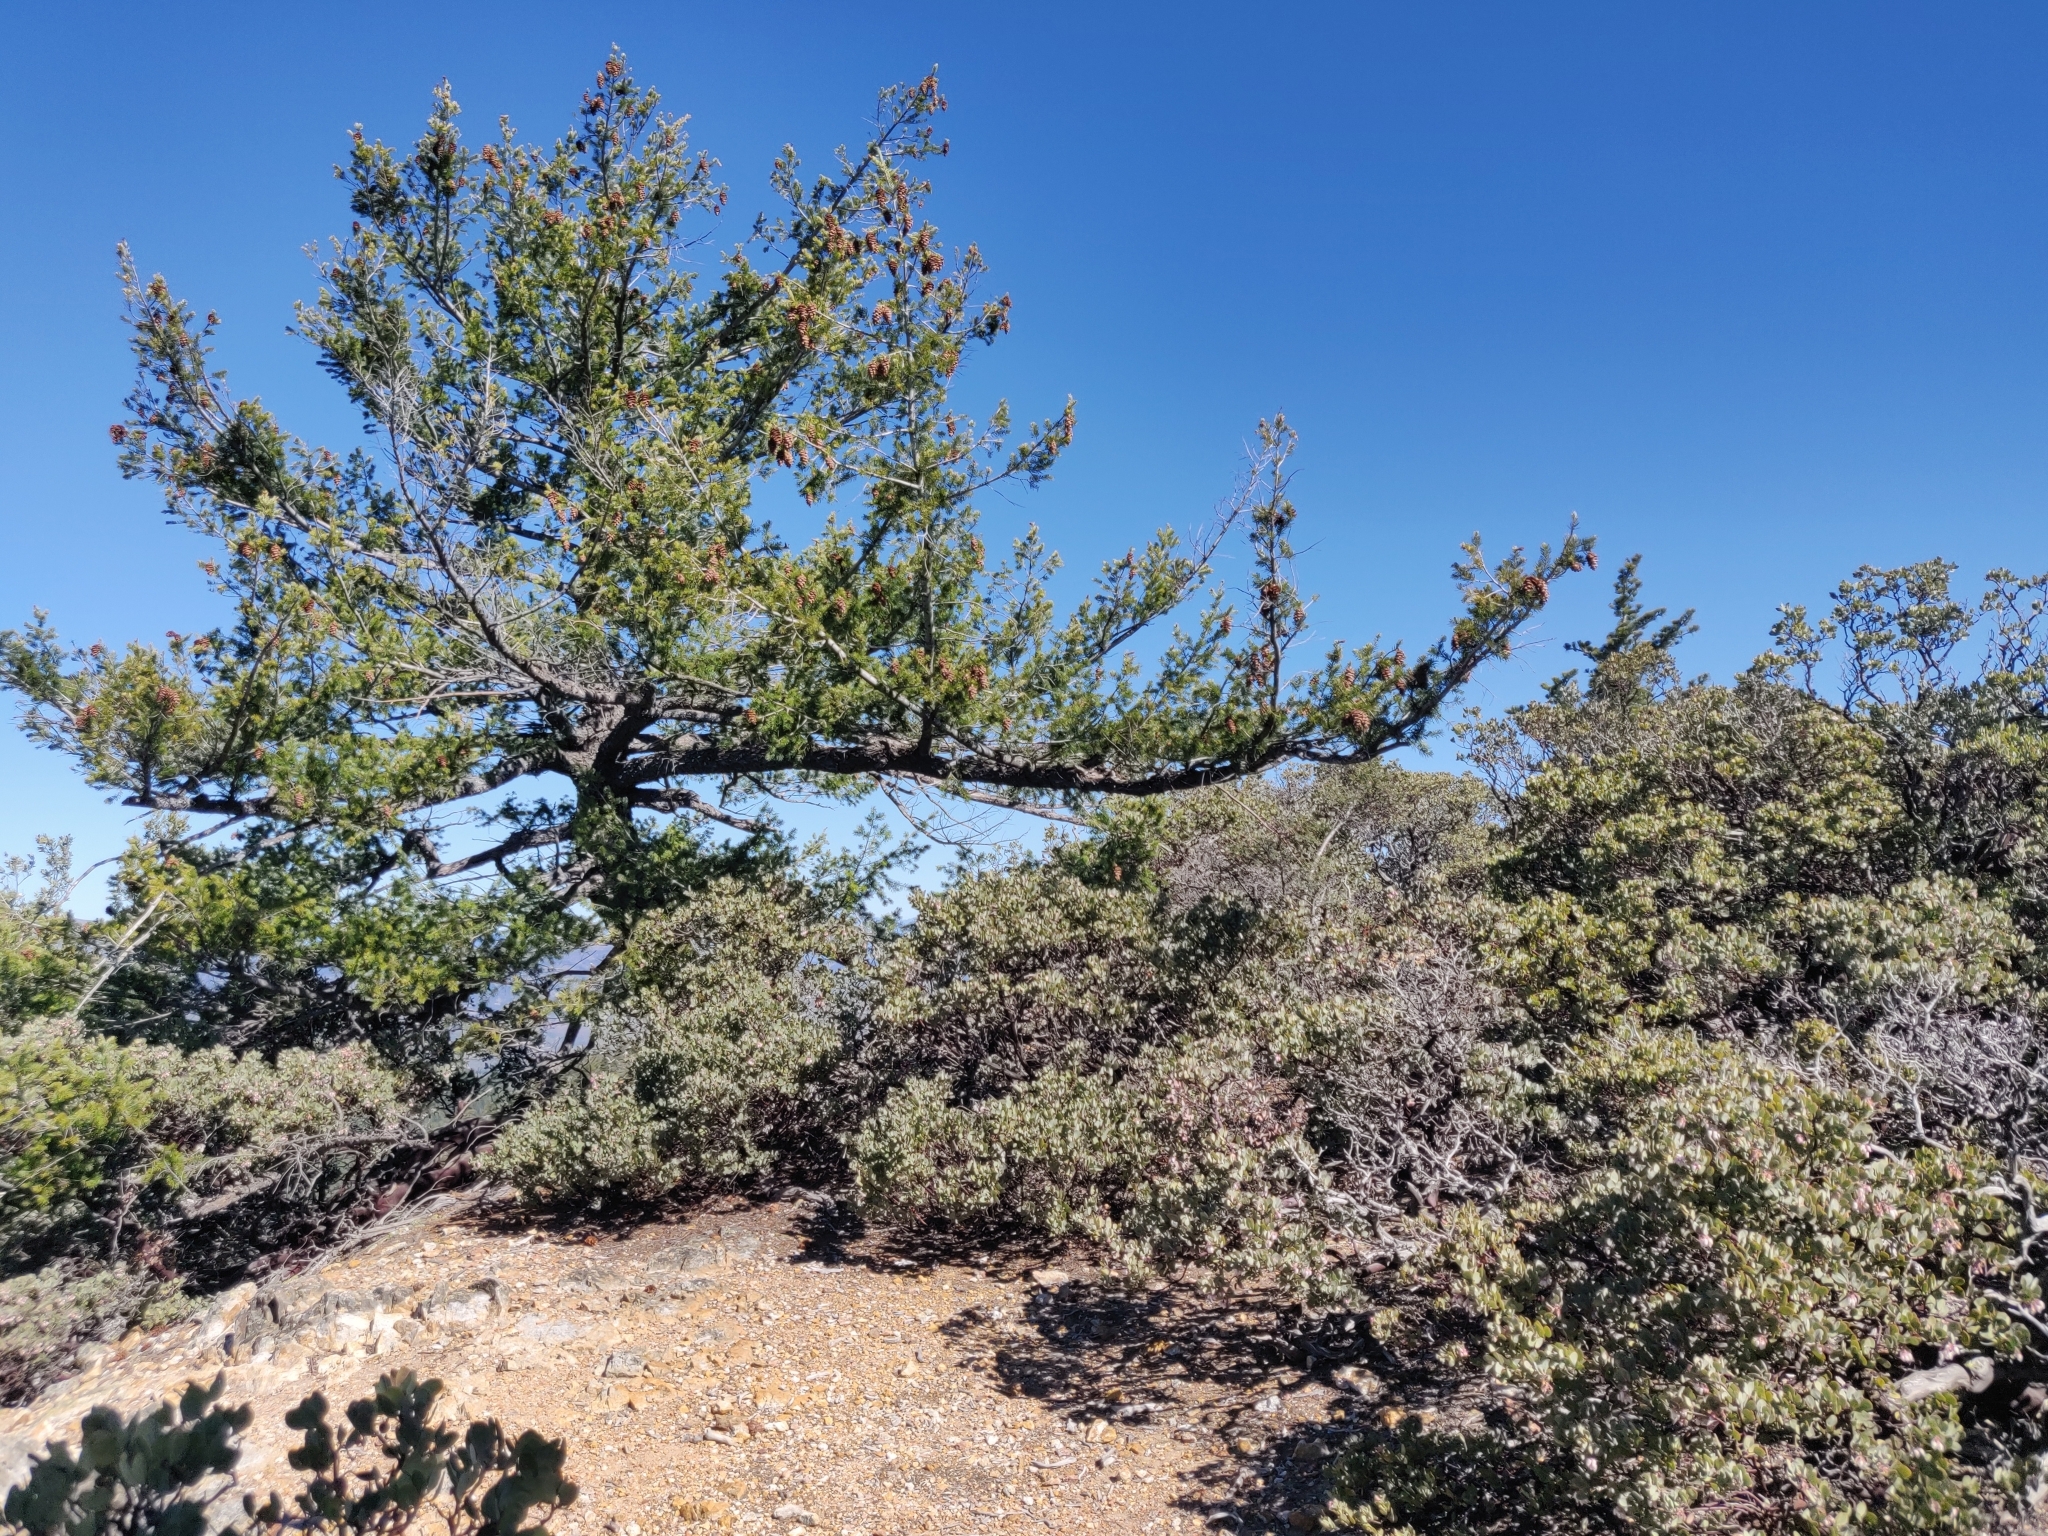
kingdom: Plantae
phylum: Tracheophyta
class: Pinopsida
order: Pinales
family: Pinaceae
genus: Pseudotsuga
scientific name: Pseudotsuga menziesii
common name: Douglas fir
